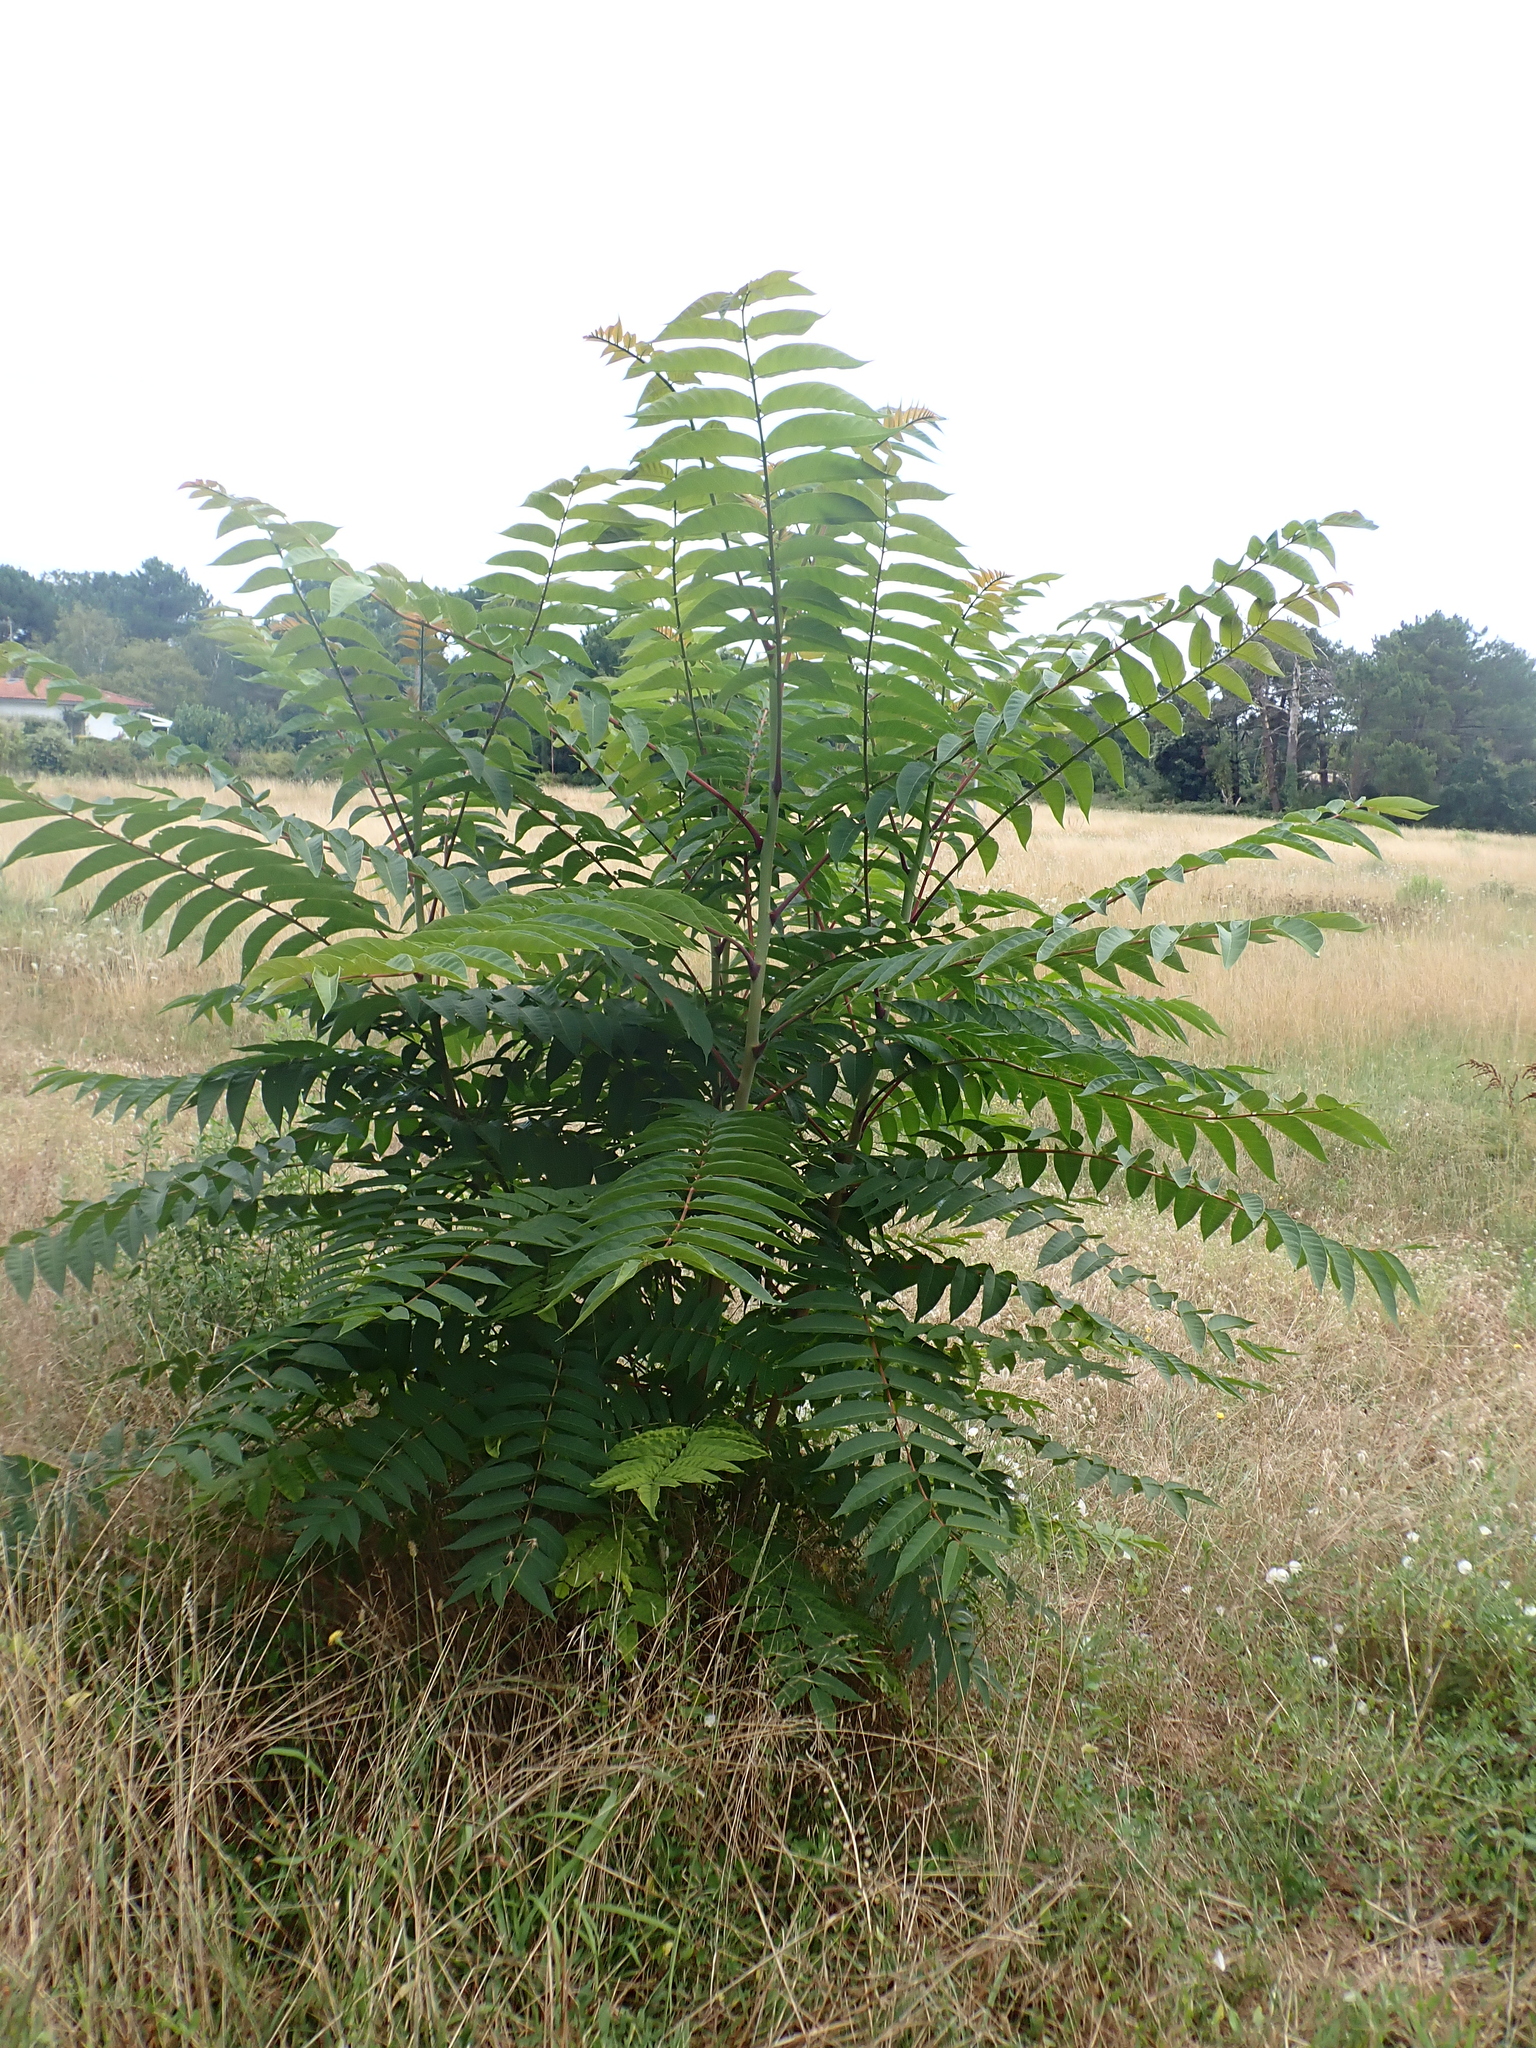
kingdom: Plantae
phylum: Tracheophyta
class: Magnoliopsida
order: Sapindales
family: Simaroubaceae
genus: Ailanthus
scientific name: Ailanthus altissima
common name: Tree-of-heaven
